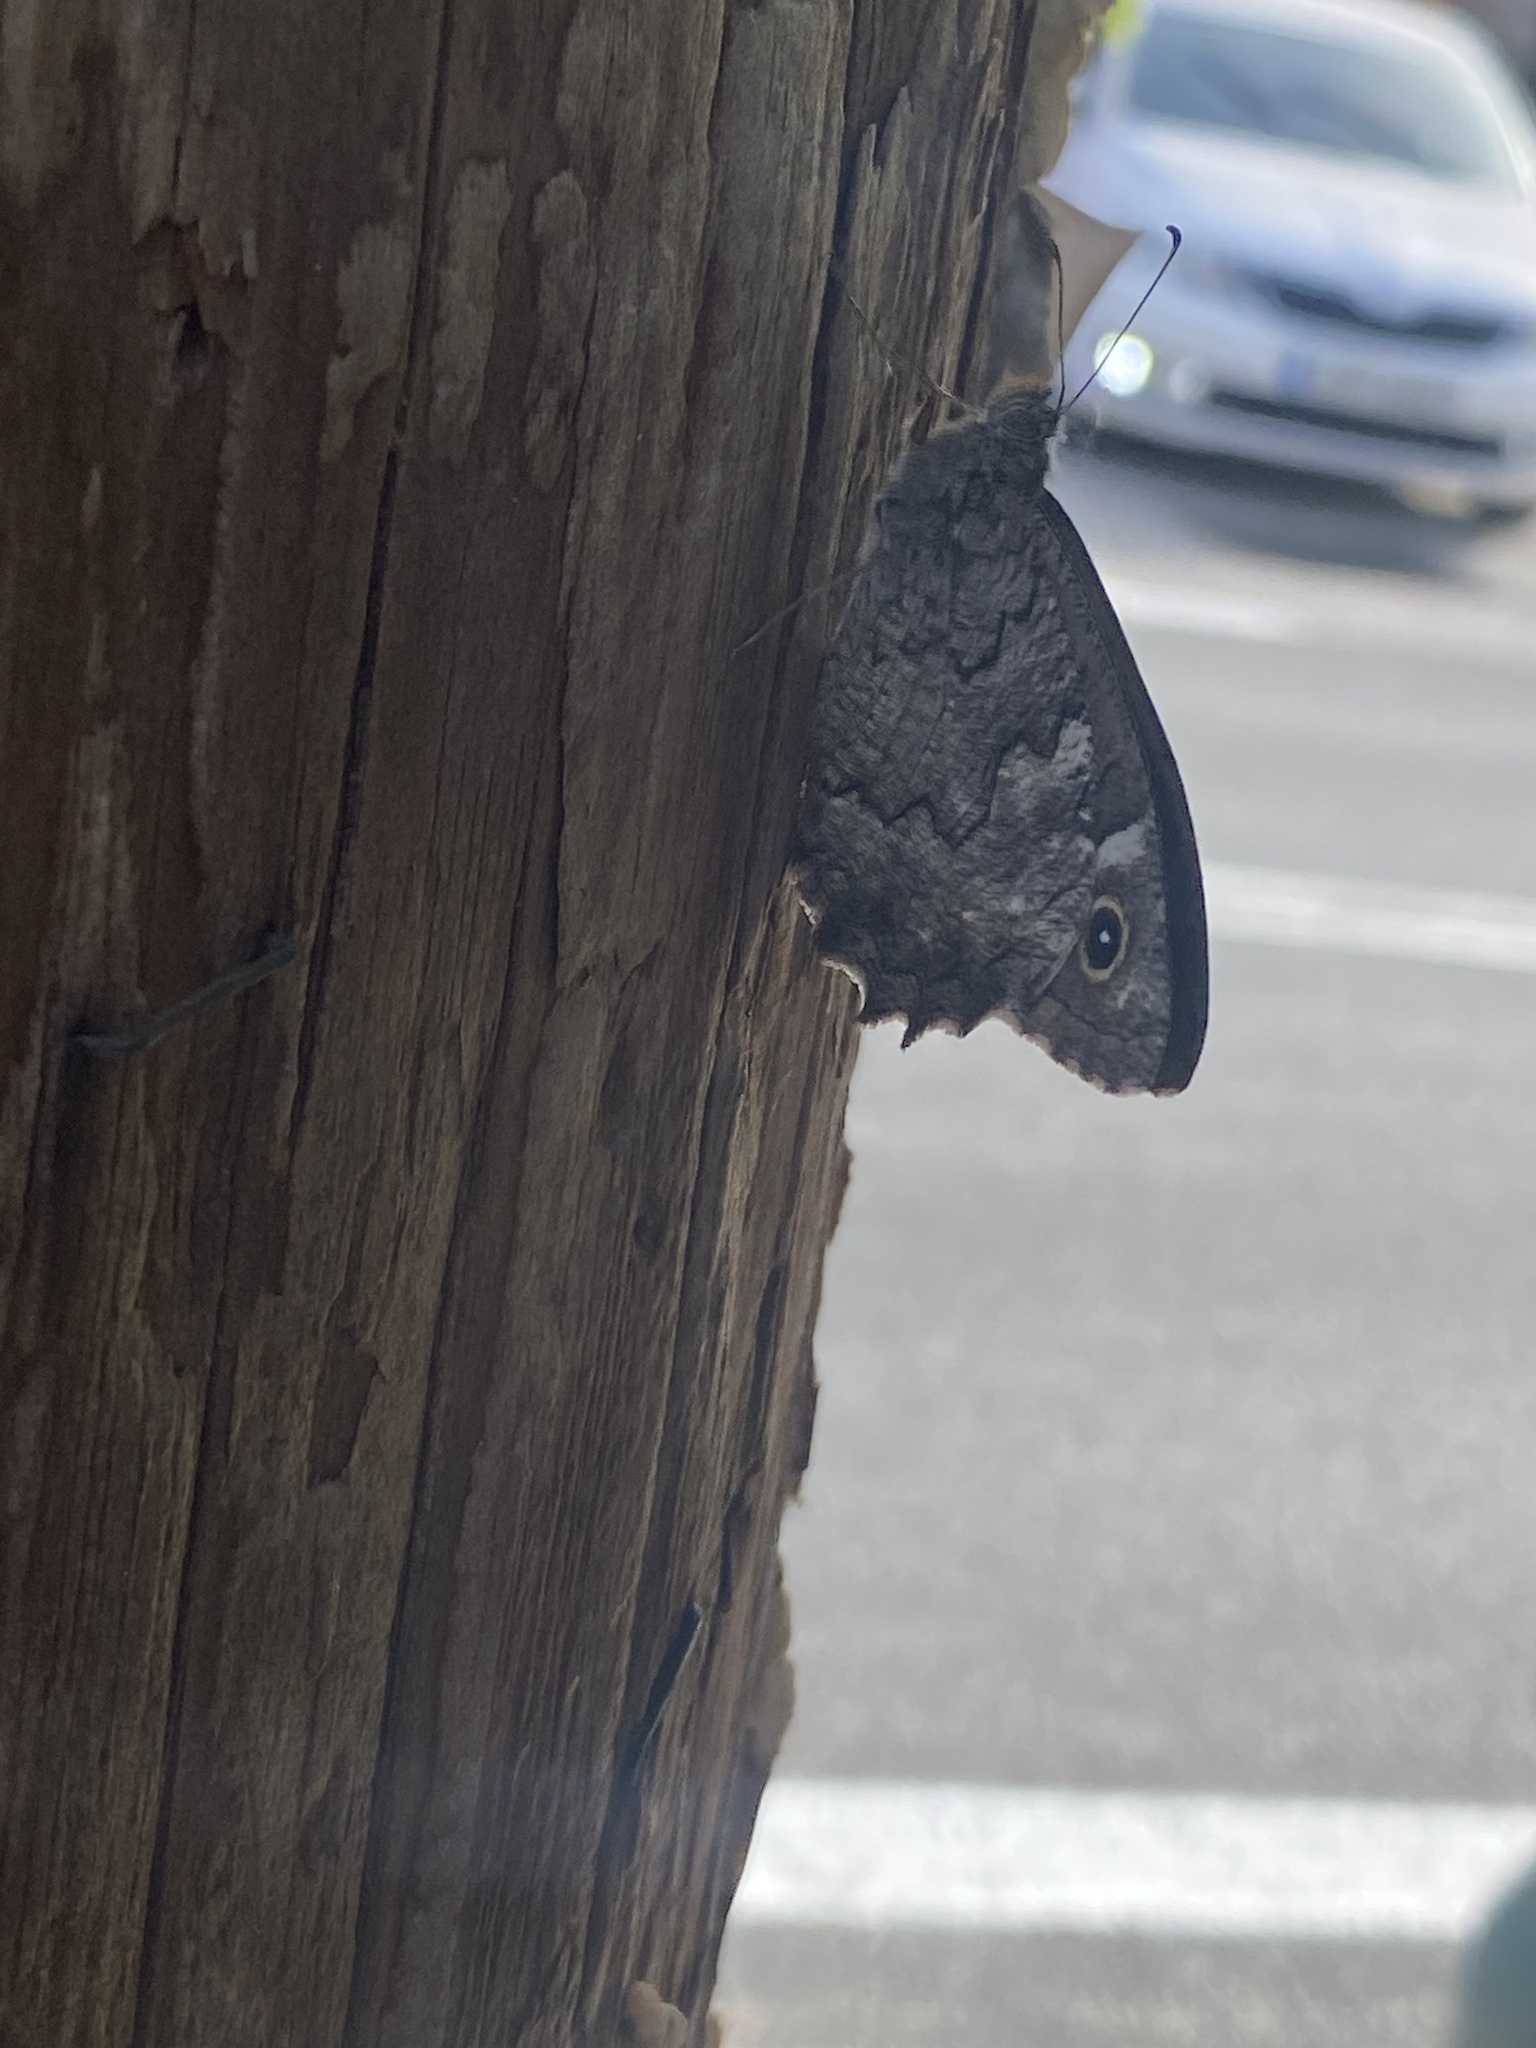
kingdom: Animalia
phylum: Arthropoda
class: Insecta
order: Lepidoptera
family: Nymphalidae
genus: Hipparchia
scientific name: Hipparchia fatua
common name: Freyer's grayling
